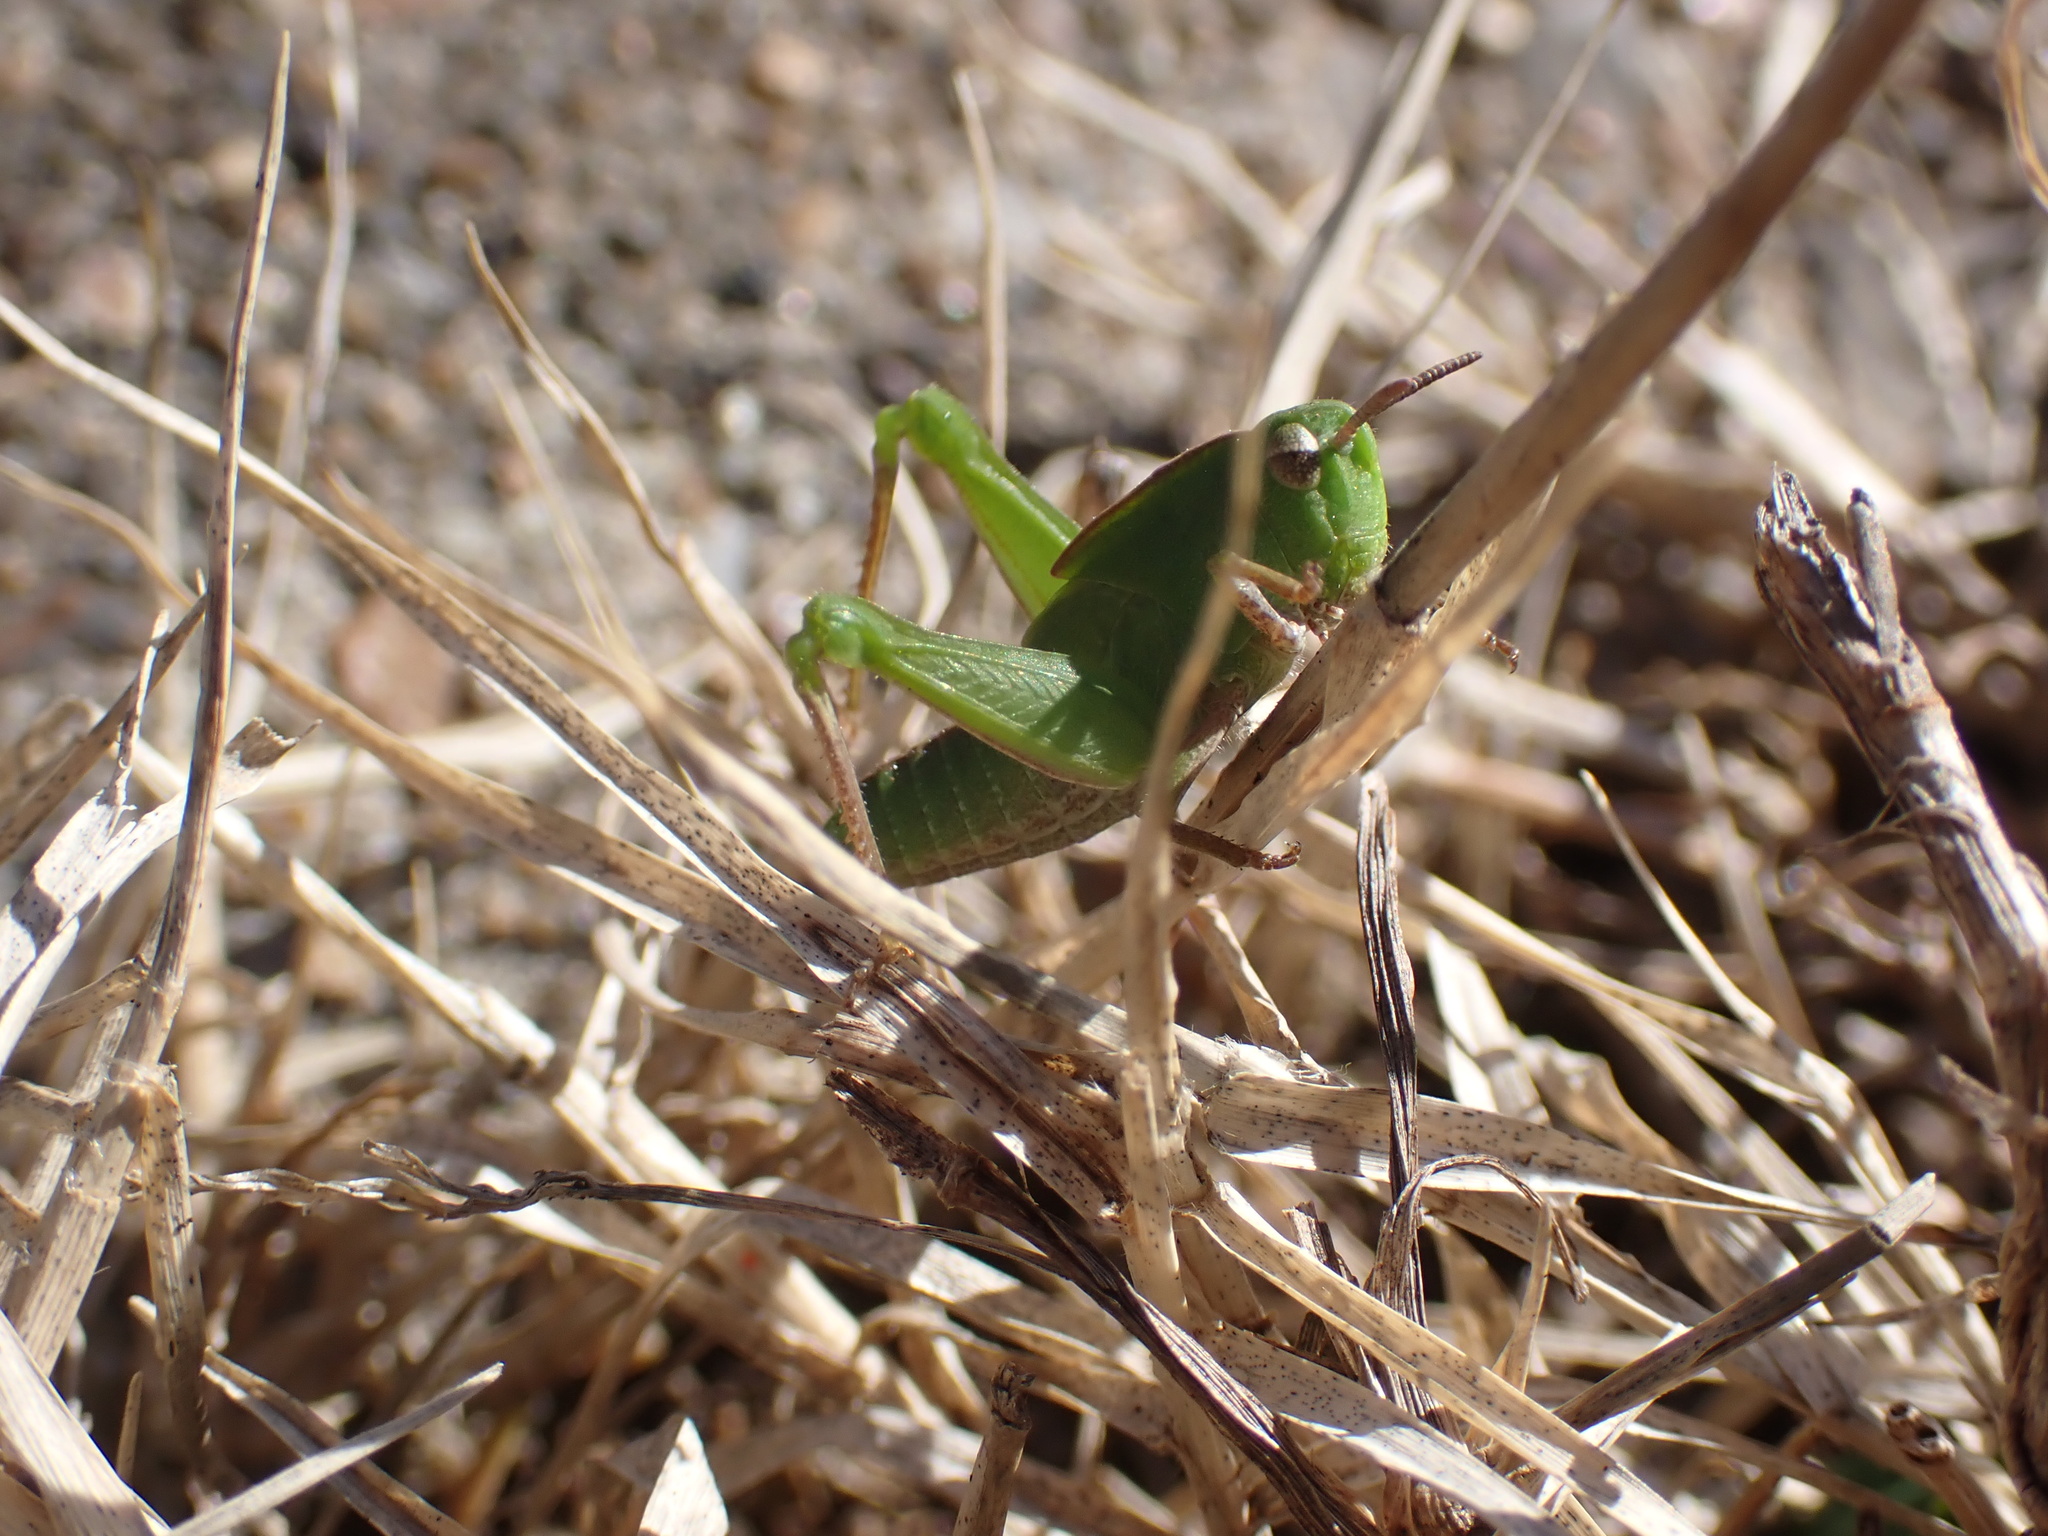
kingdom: Animalia
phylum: Arthropoda
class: Insecta
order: Orthoptera
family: Acrididae
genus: Chortophaga
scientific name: Chortophaga viridifasciata
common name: Green-striped grasshopper
